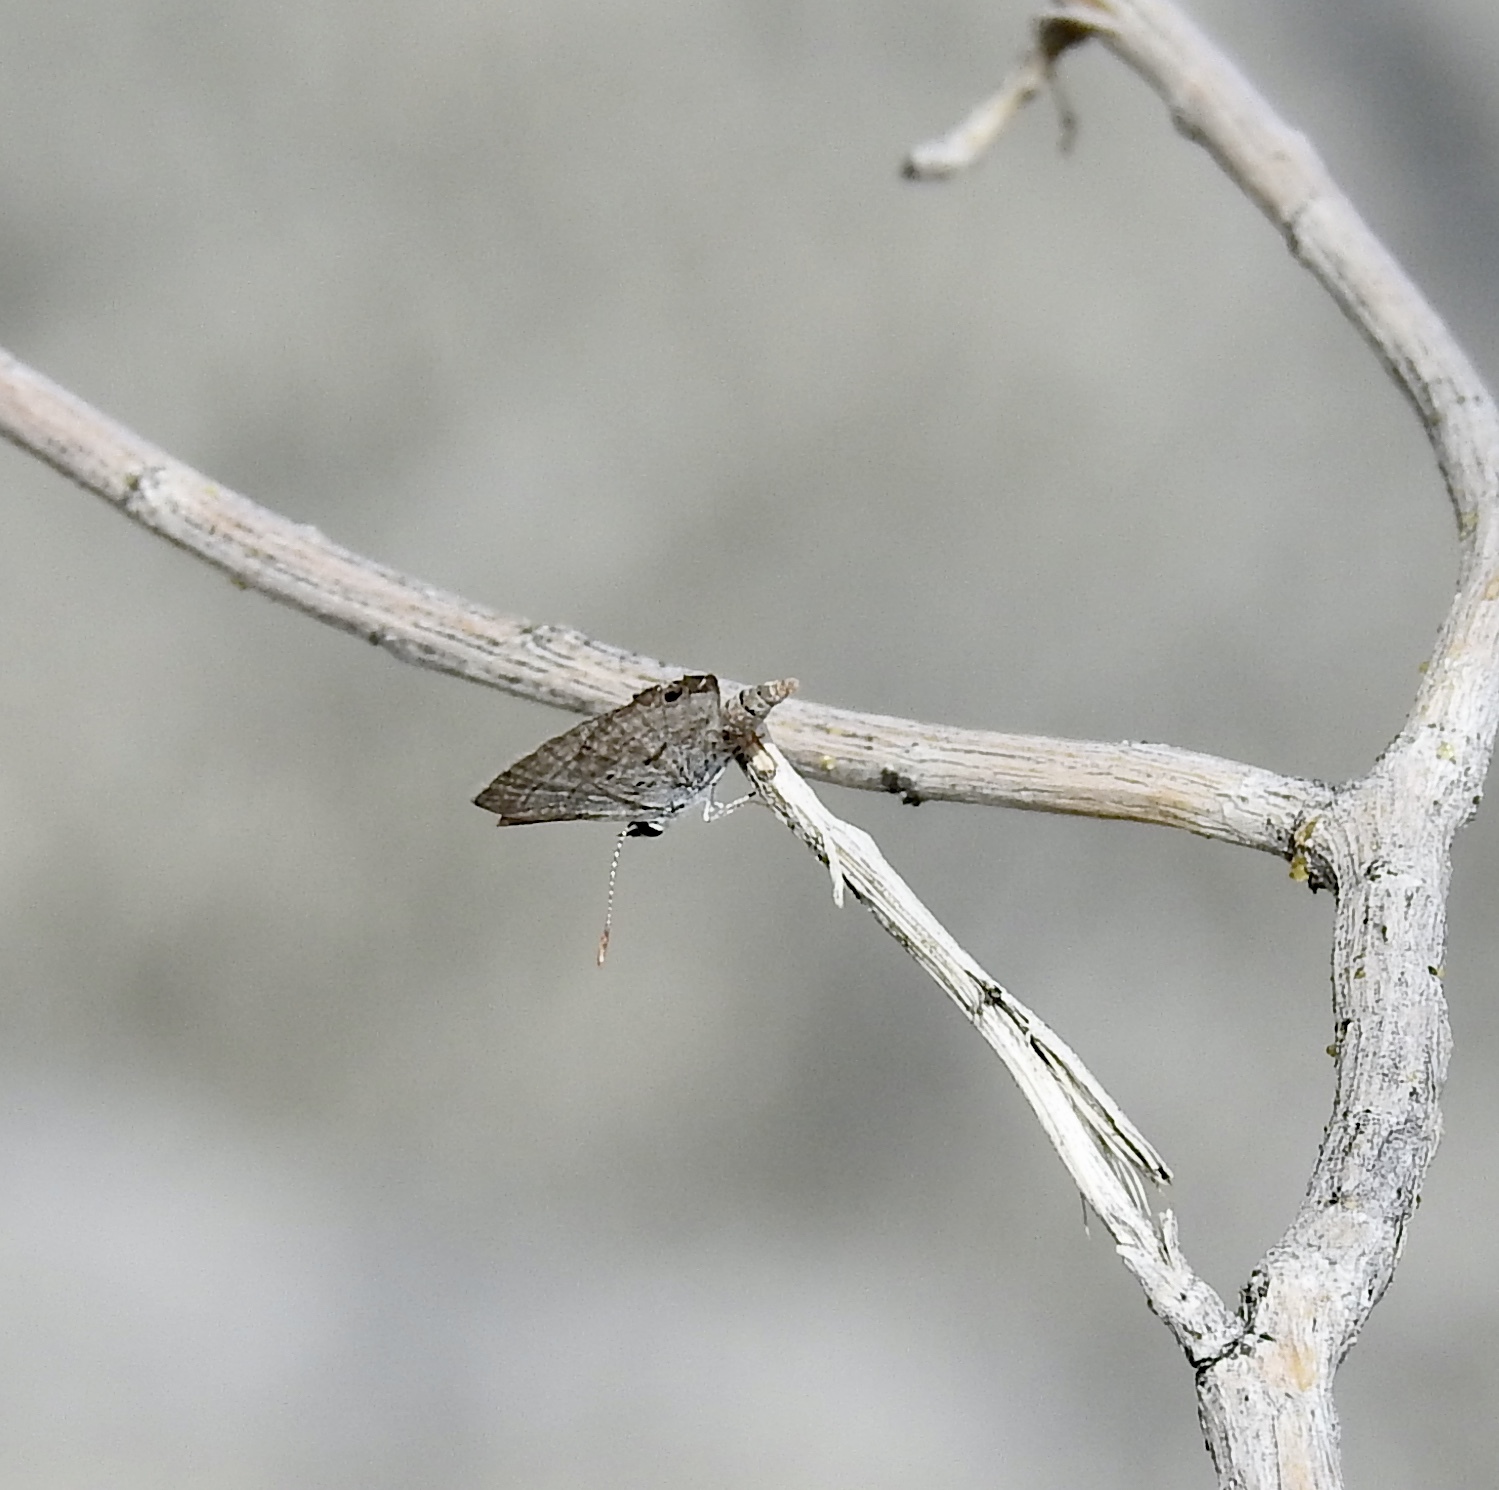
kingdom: Animalia
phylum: Arthropoda
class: Insecta
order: Lepidoptera
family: Lycaenidae
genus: Hemiargus
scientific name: Hemiargus ceraunus
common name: Ceraunus blue
